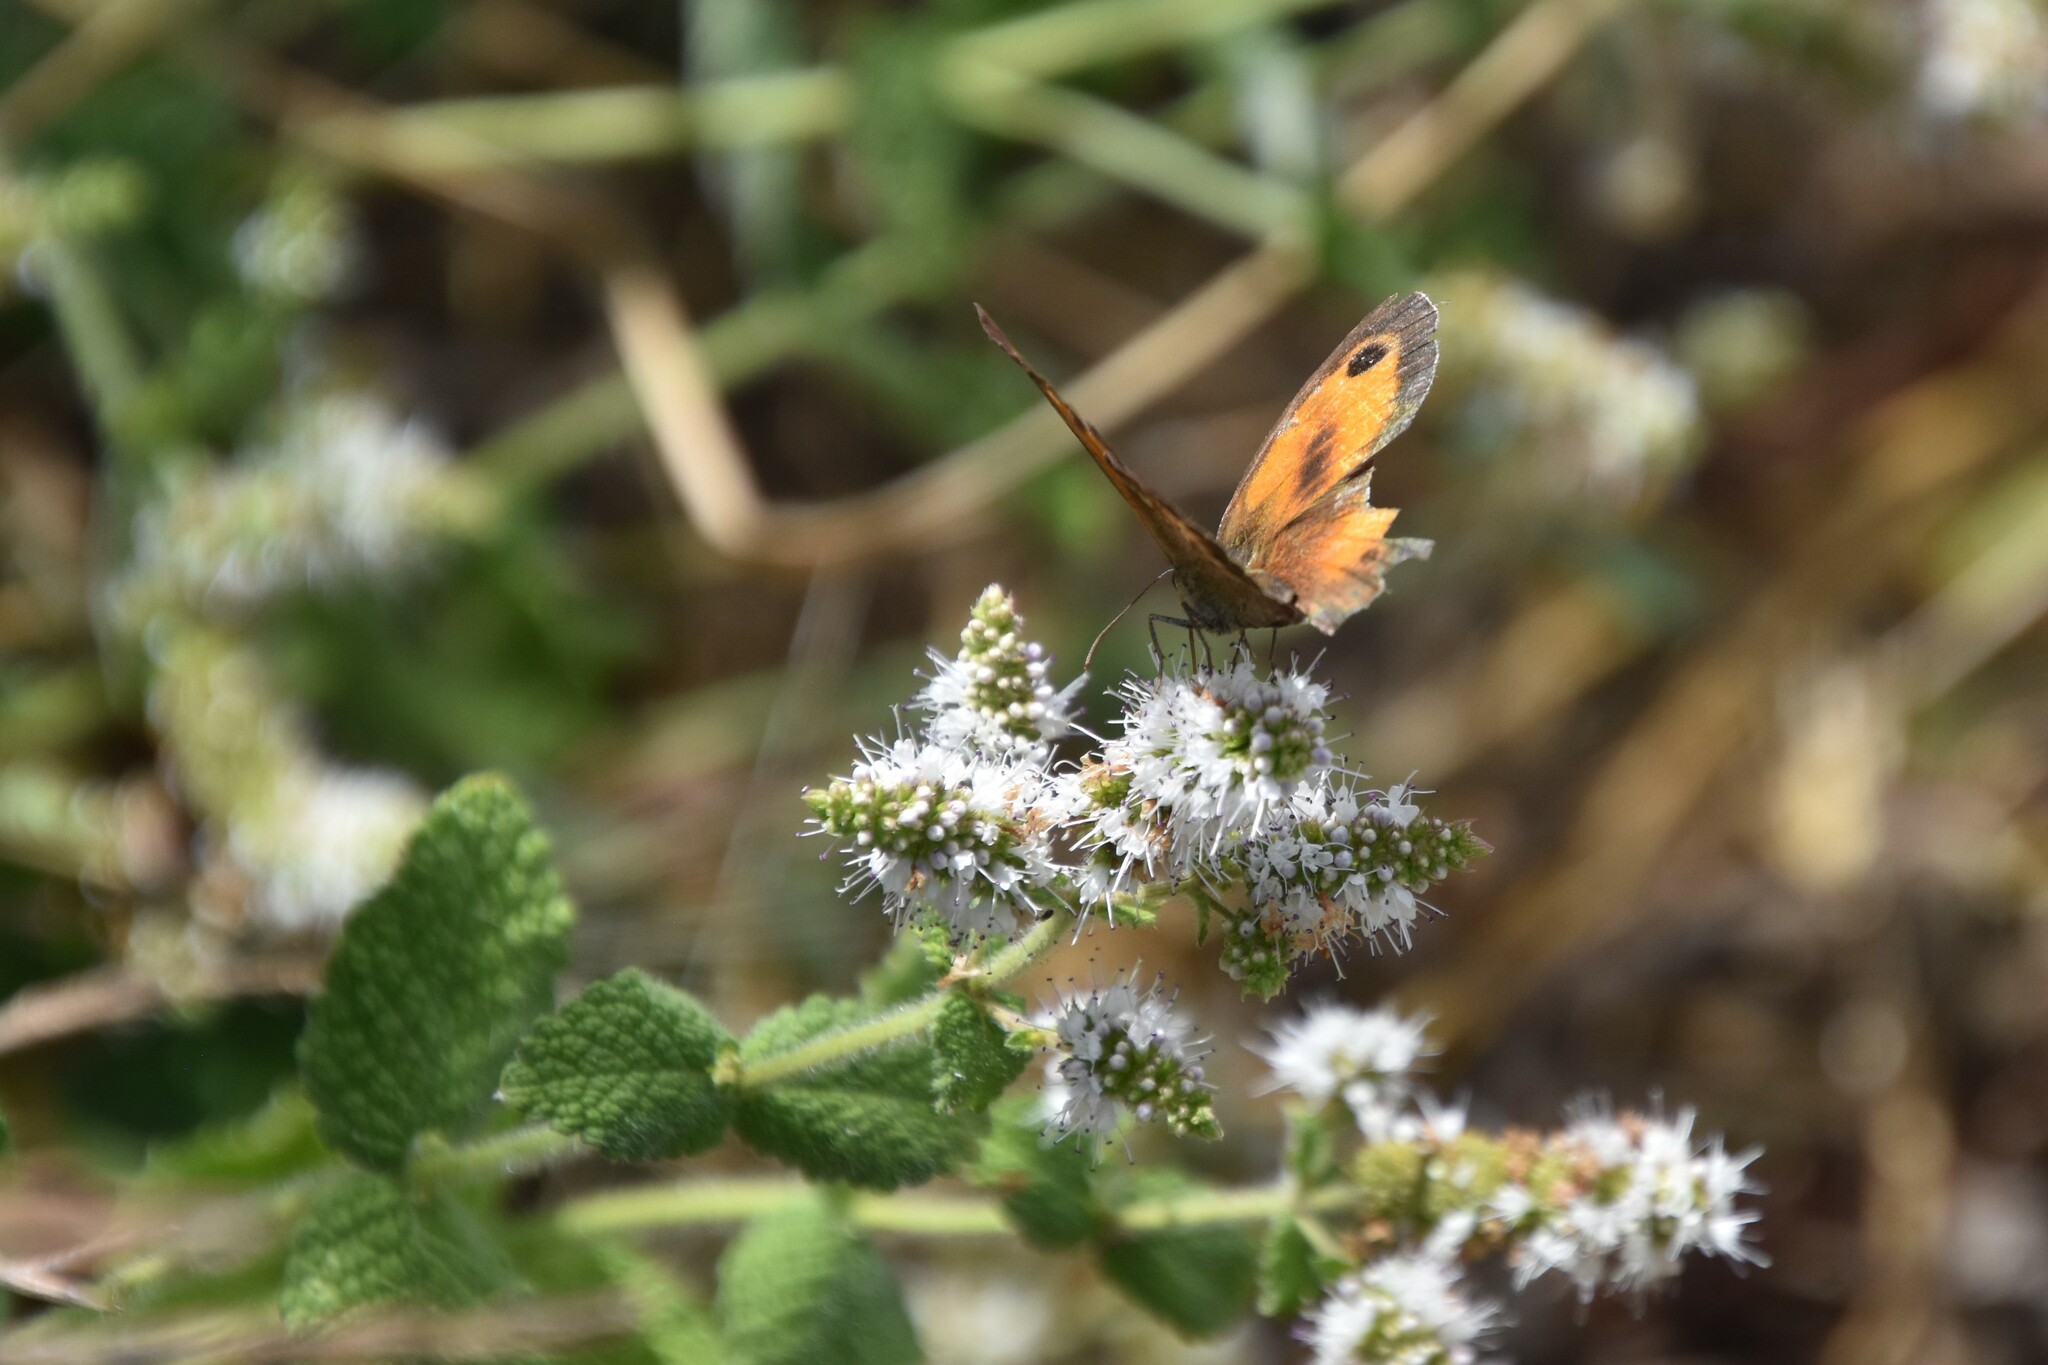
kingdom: Animalia
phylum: Arthropoda
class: Insecta
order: Lepidoptera
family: Nymphalidae
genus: Pyronia
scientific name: Pyronia tithonus
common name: Gatekeeper
